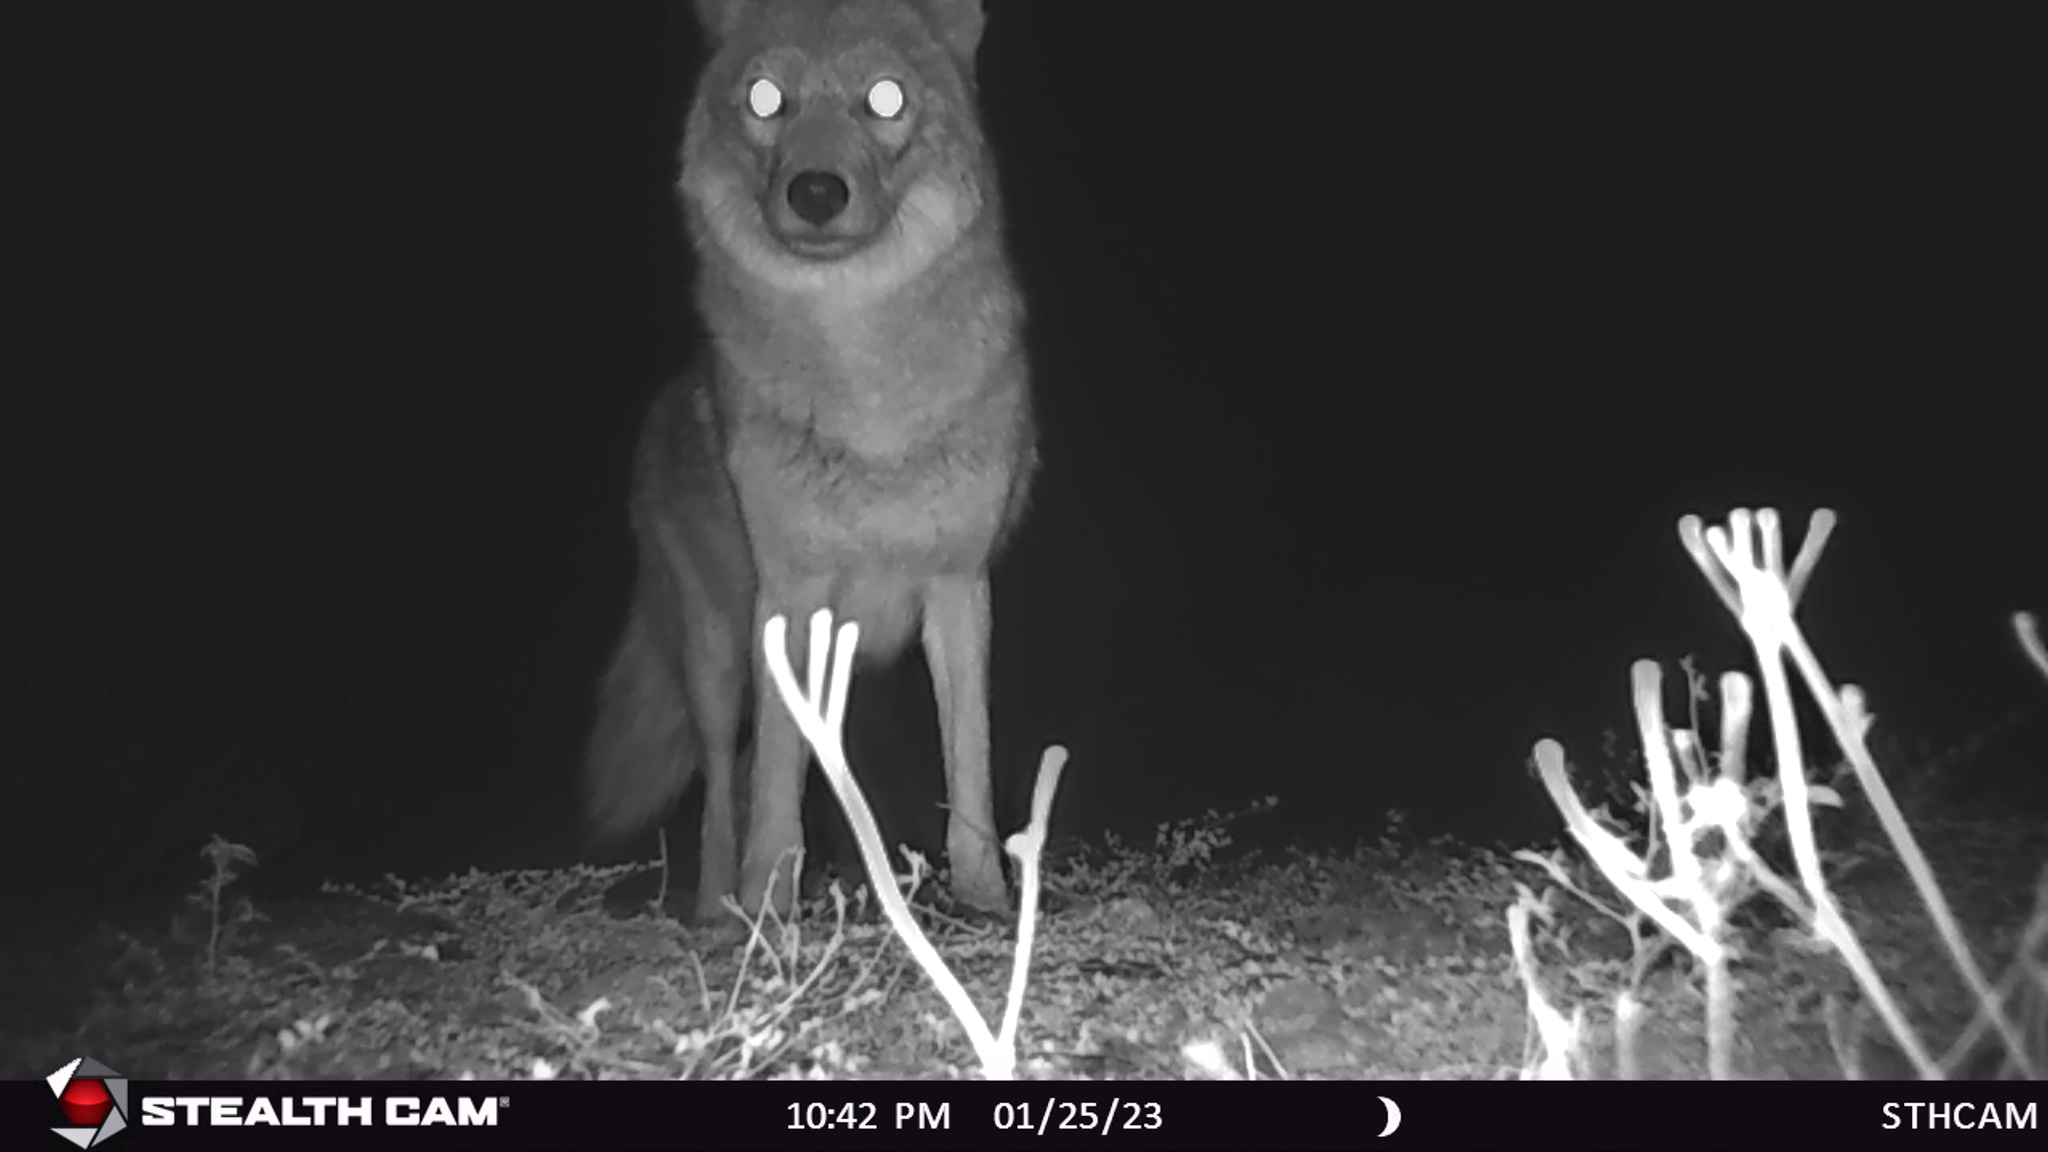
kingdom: Animalia
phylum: Chordata
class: Mammalia
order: Carnivora
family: Canidae
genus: Canis
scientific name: Canis latrans
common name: Coyote
